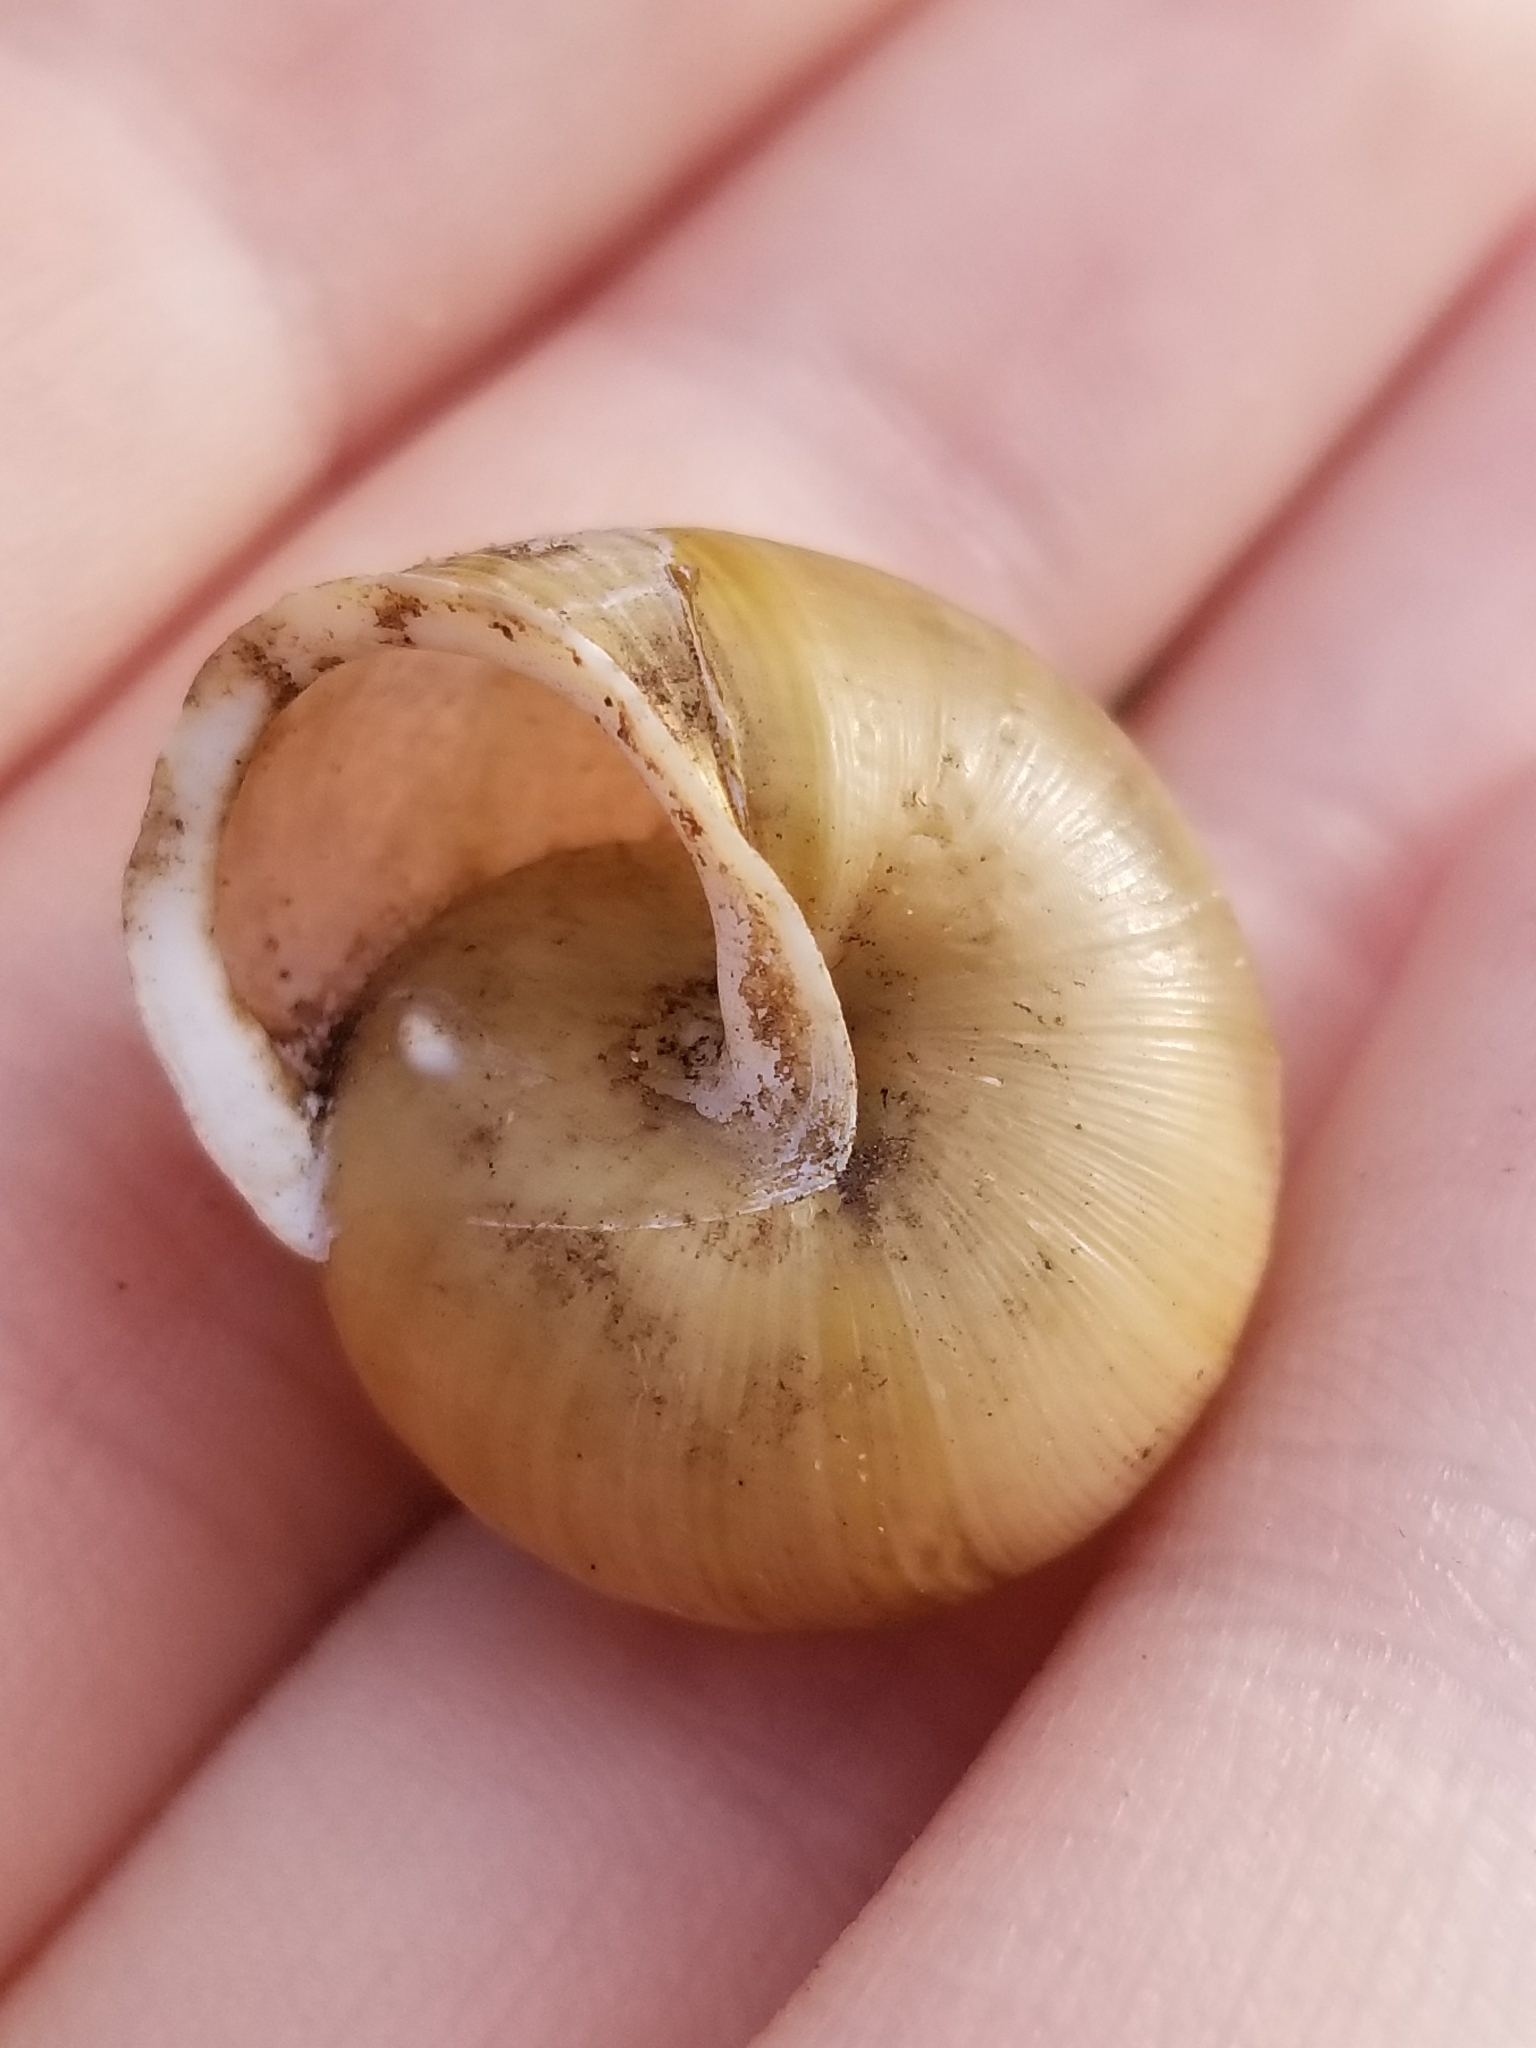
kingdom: Animalia
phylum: Mollusca
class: Gastropoda
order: Stylommatophora
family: Polygyridae
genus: Mesodon
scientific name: Mesodon thyroidus
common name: White-lip globe
